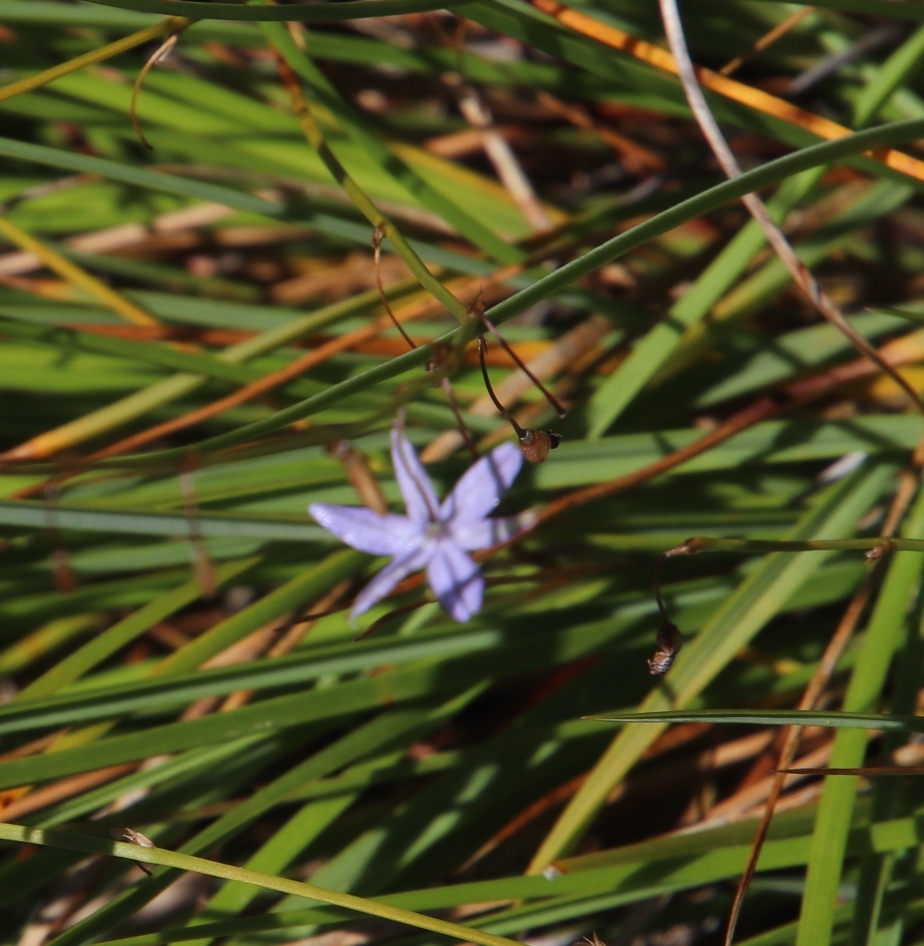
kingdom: Plantae
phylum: Tracheophyta
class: Liliopsida
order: Asparagales
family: Asphodelaceae
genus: Caesia
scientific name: Caesia contorta
